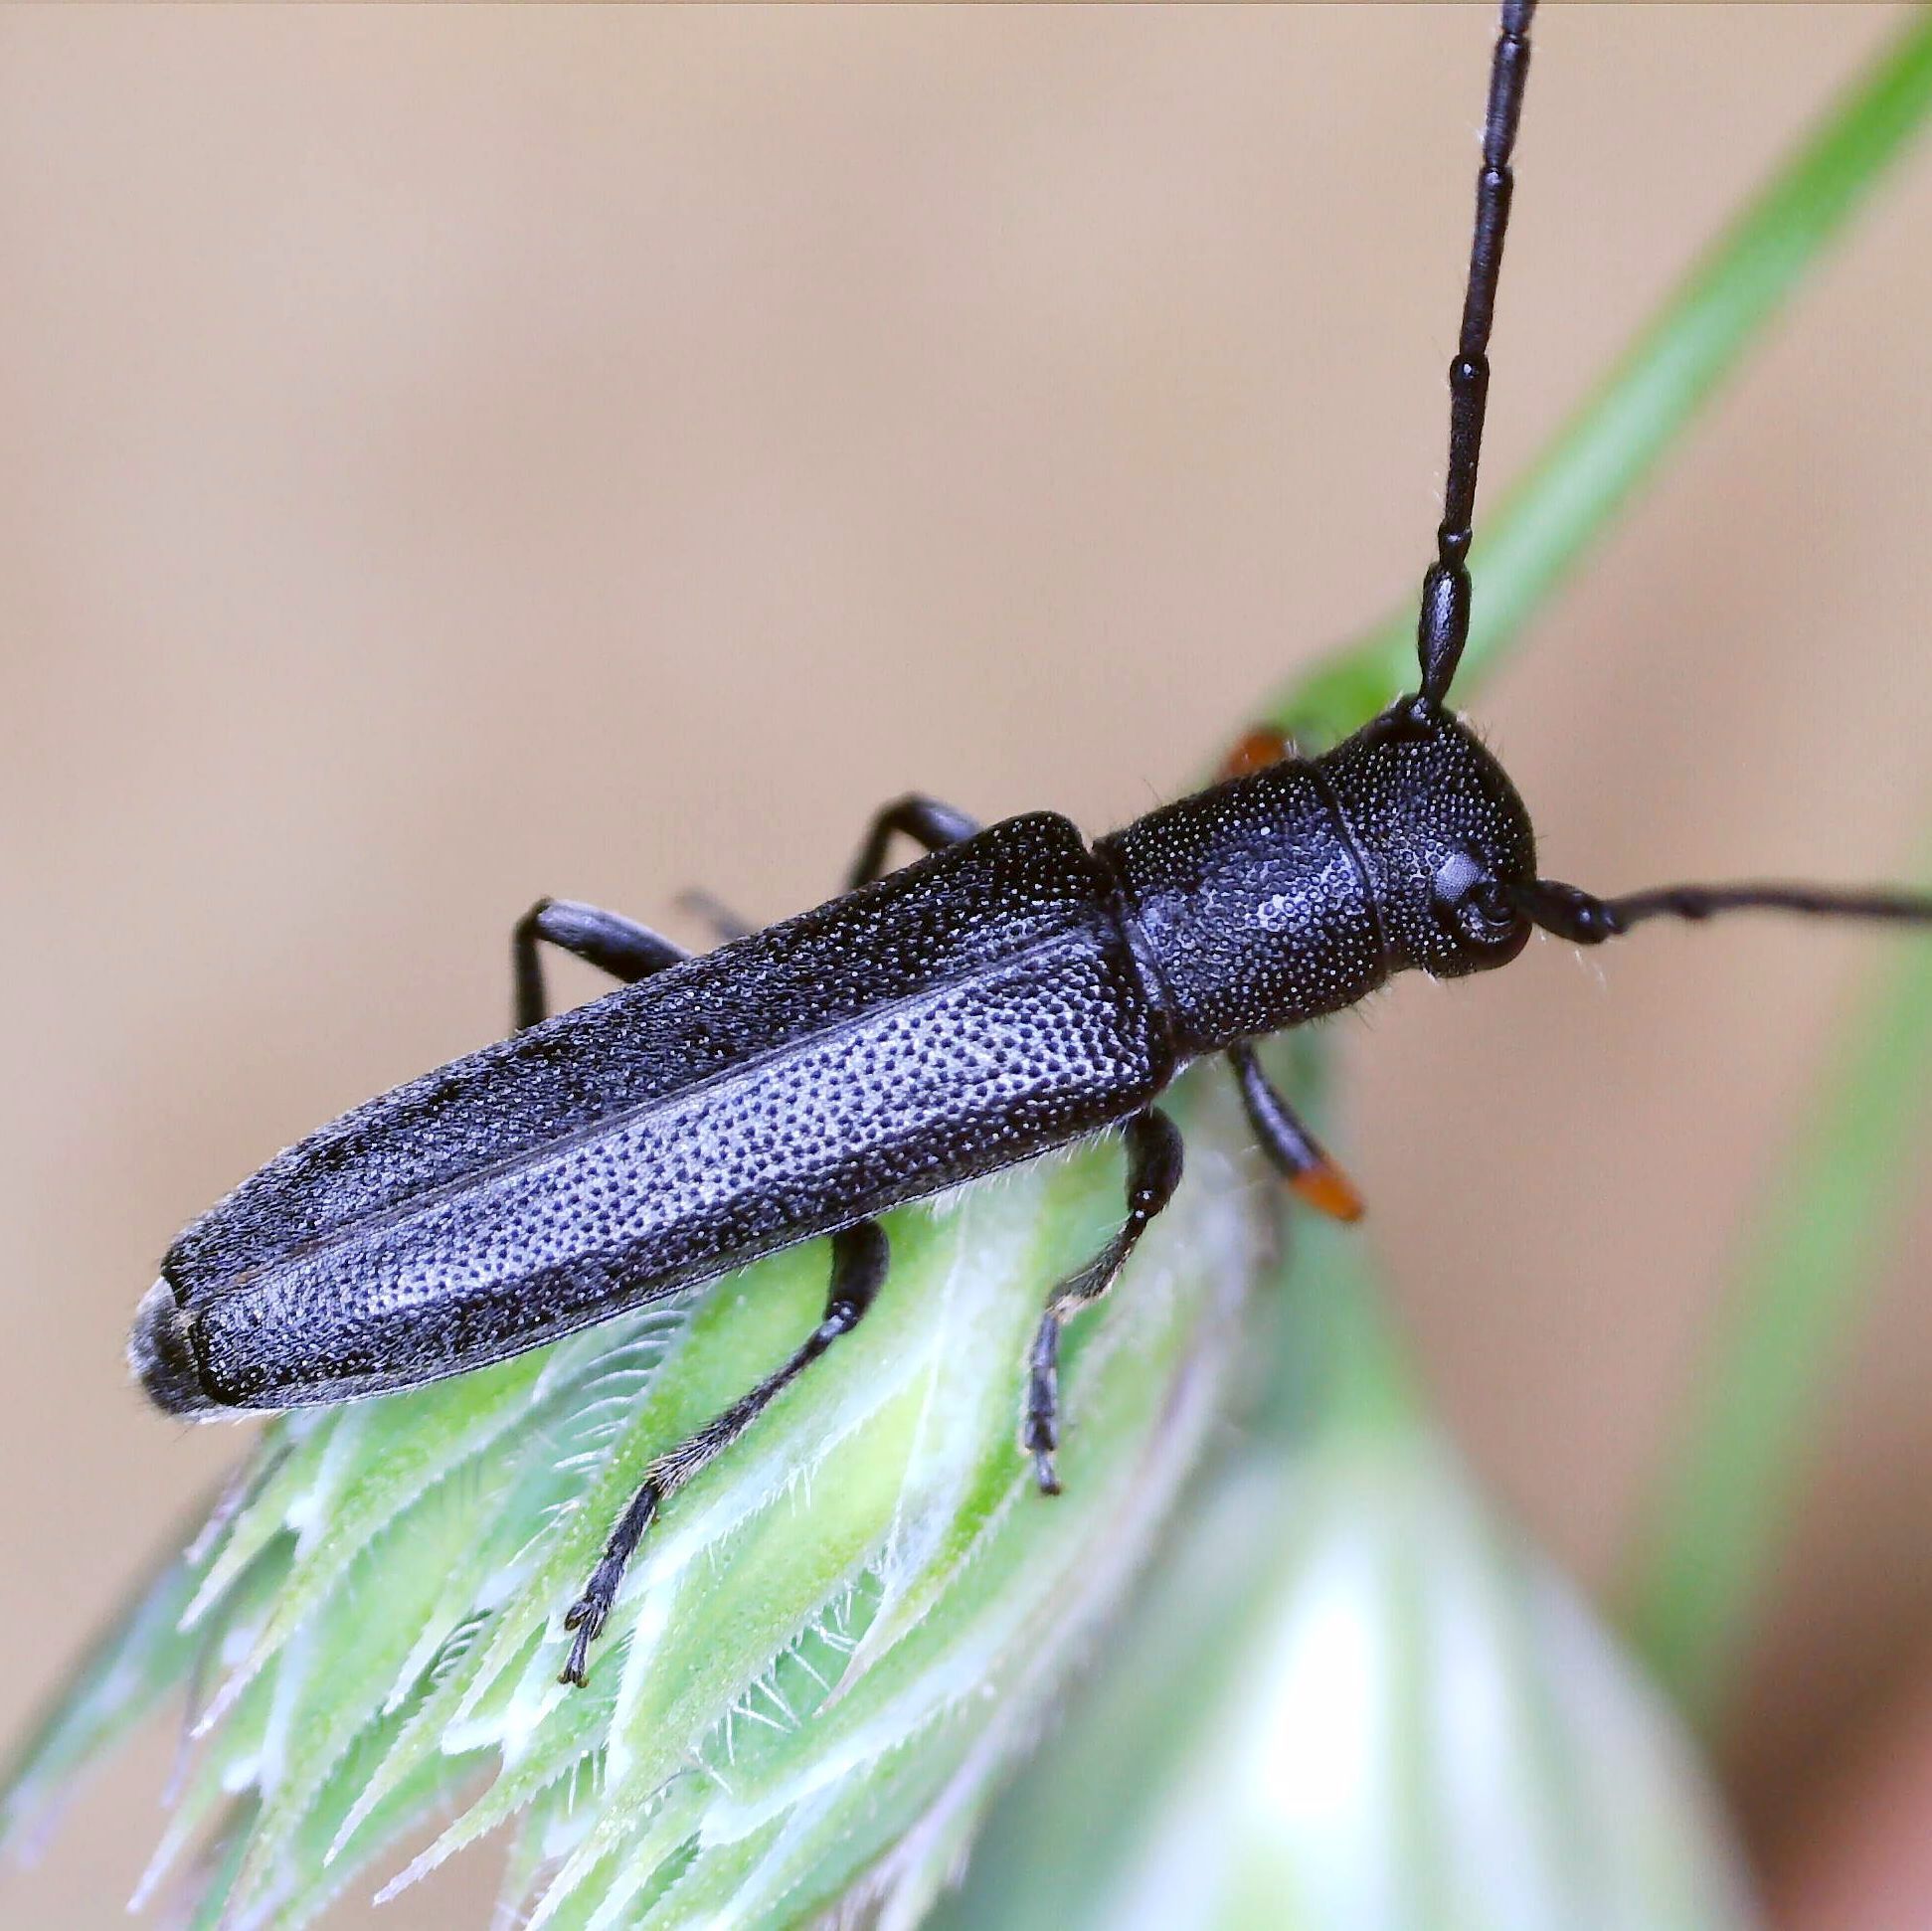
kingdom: Animalia
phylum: Arthropoda
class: Insecta
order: Coleoptera
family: Cerambycidae
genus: Phytoecia
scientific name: Phytoecia cylindrica
